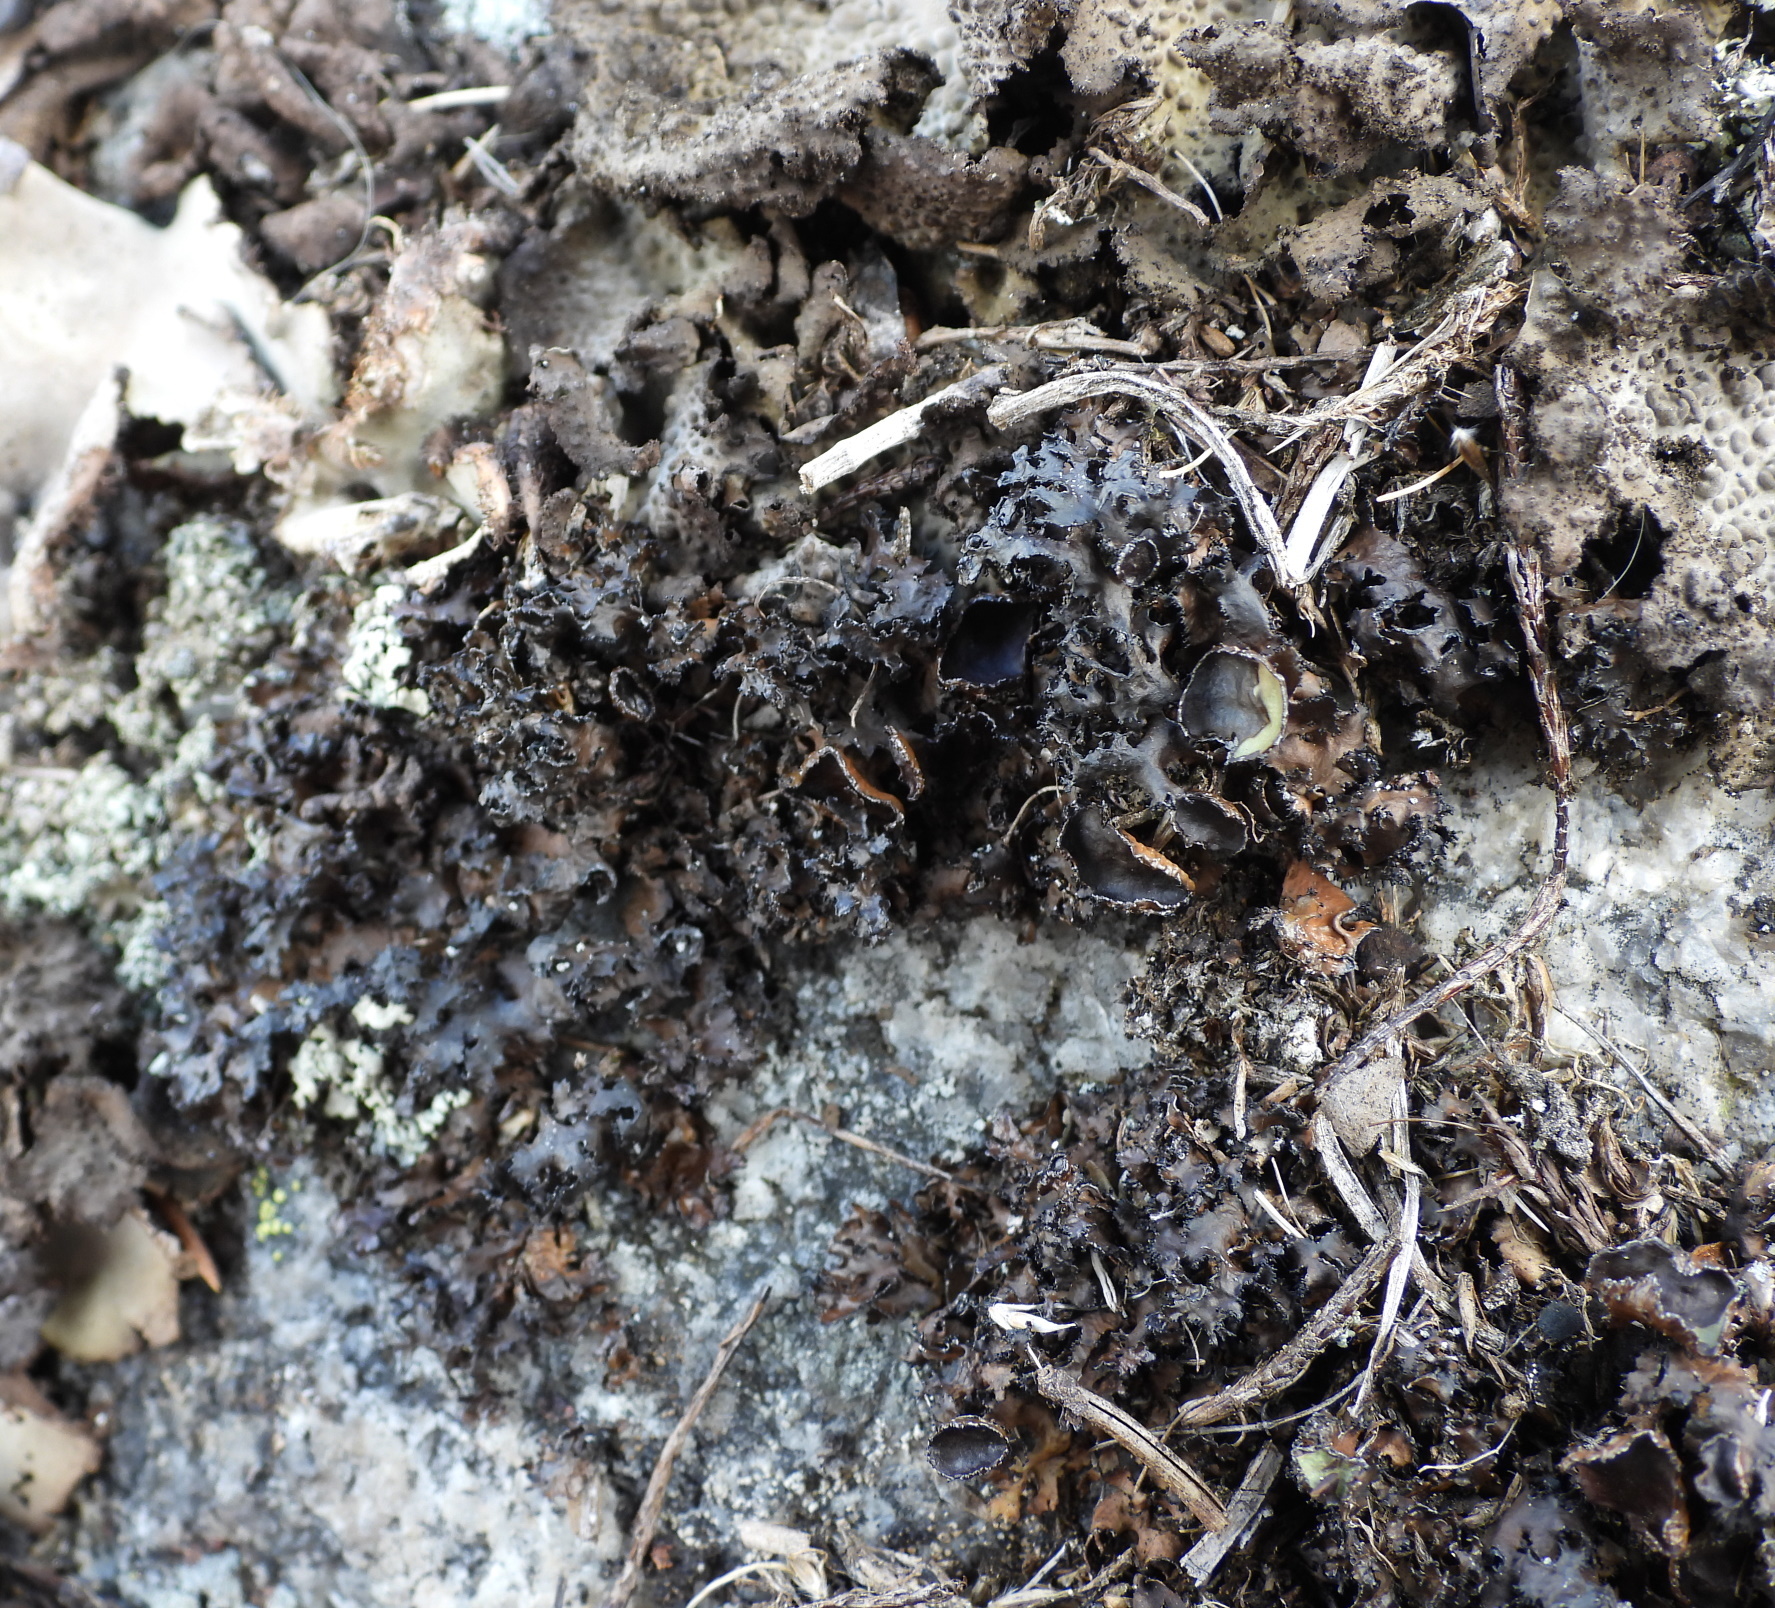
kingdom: Fungi
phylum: Ascomycota
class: Lecanoromycetes
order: Lecanorales
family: Parmeliaceae
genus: Melanelia
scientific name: Melanelia commixta
